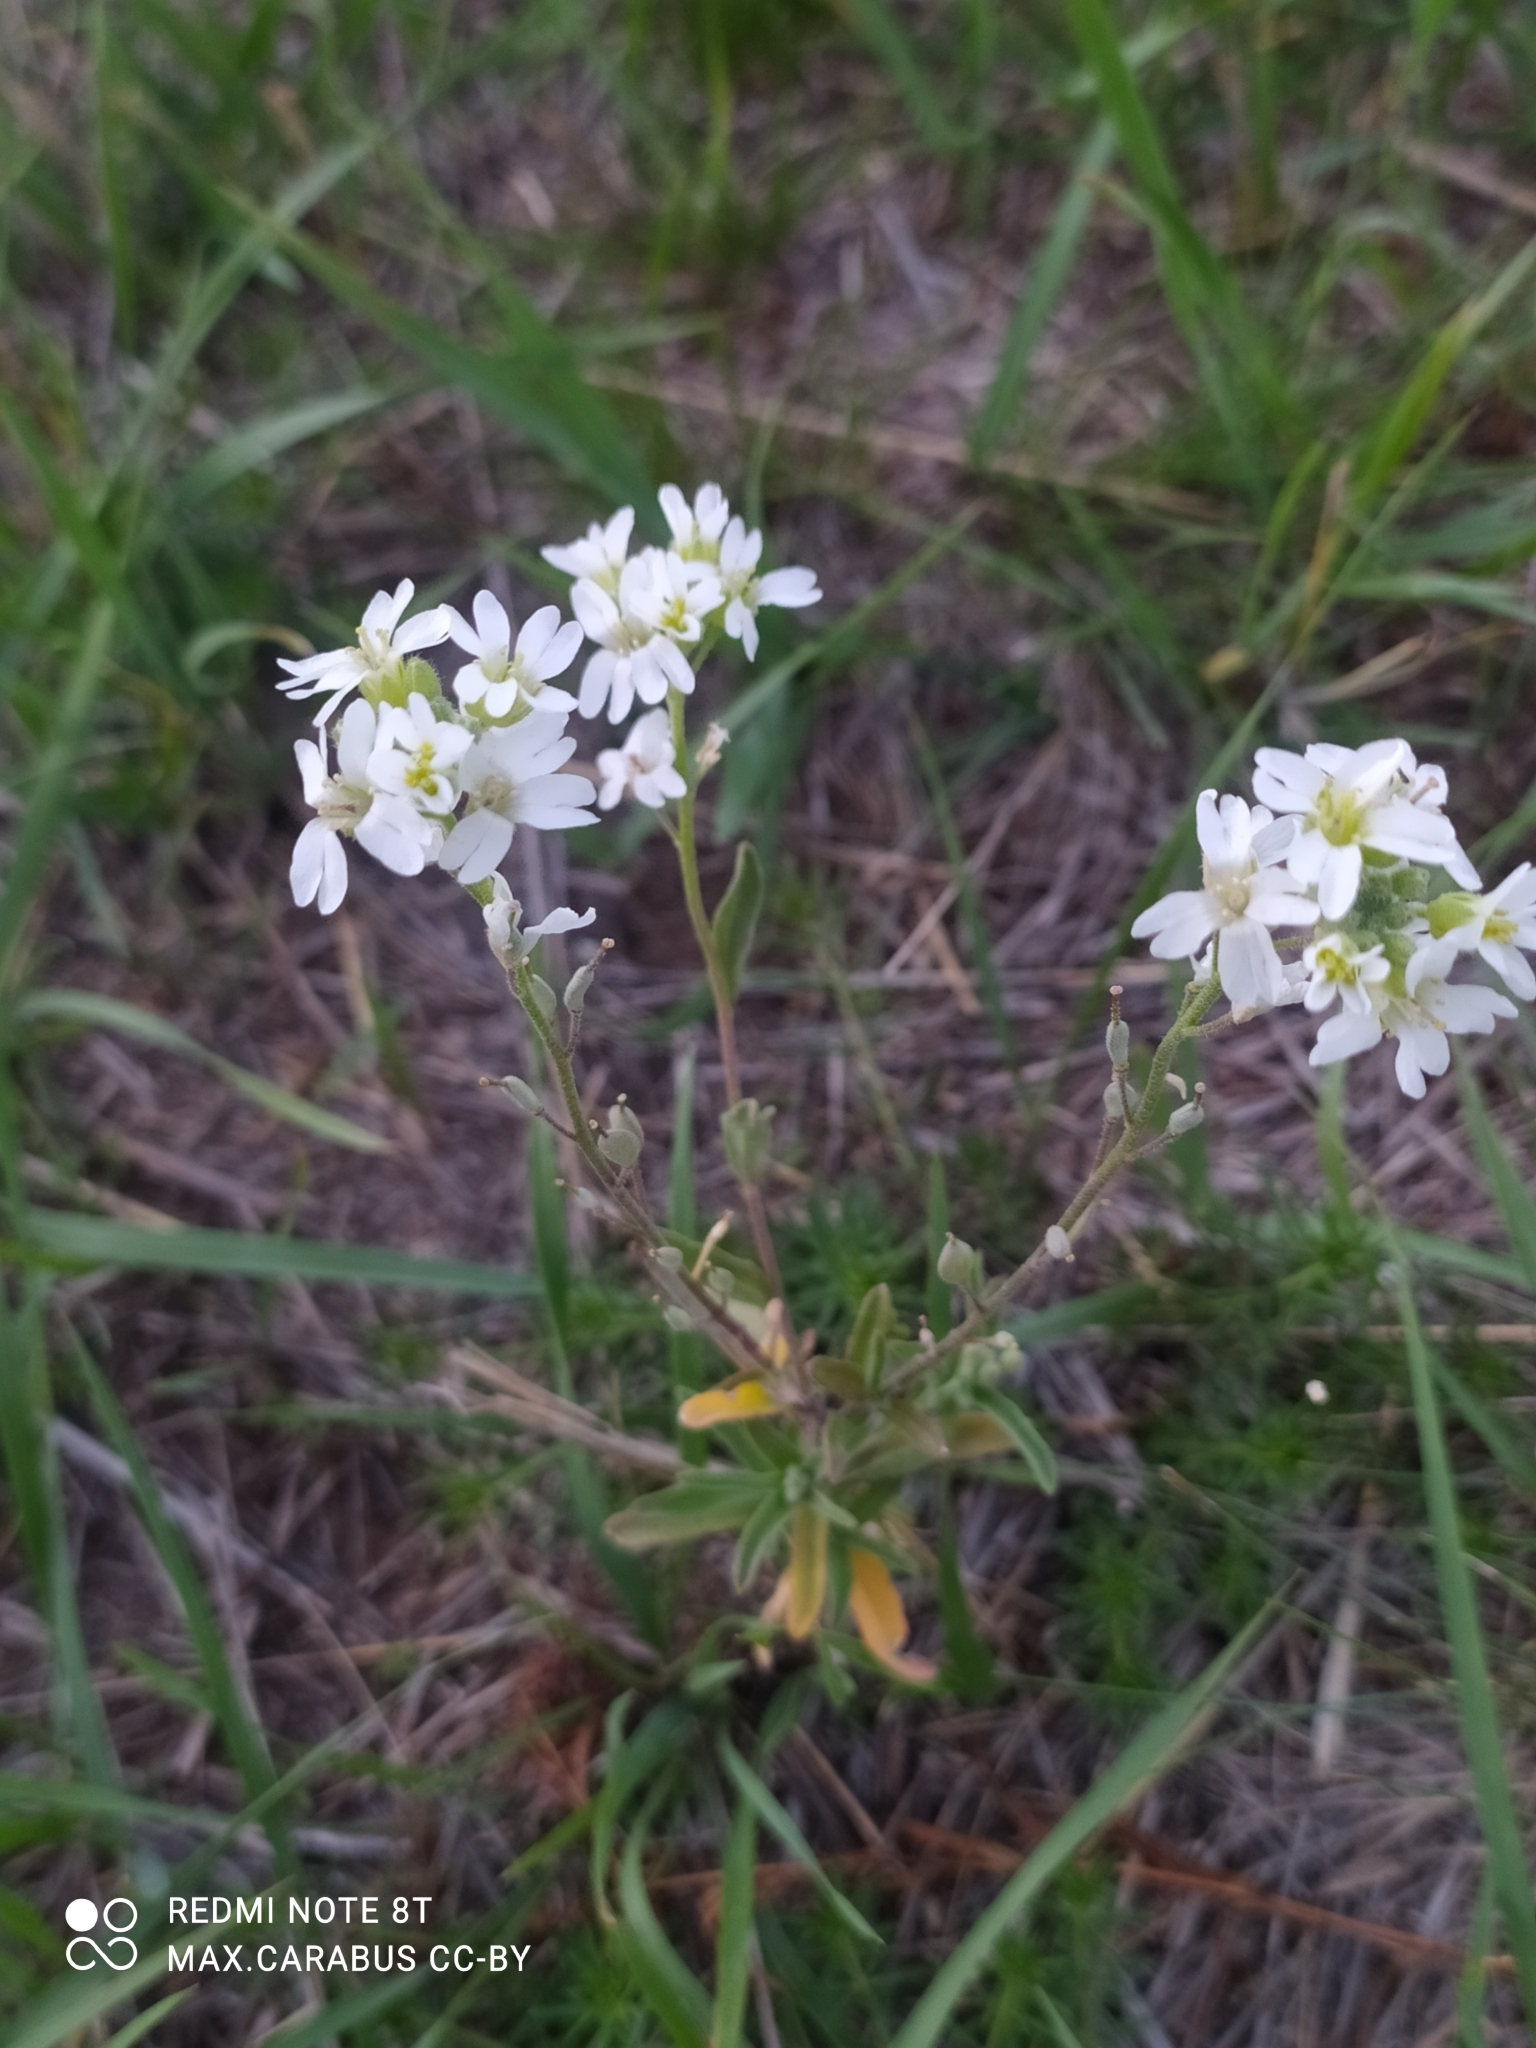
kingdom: Plantae
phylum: Tracheophyta
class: Magnoliopsida
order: Brassicales
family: Brassicaceae
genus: Berteroa
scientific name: Berteroa incana
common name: Hoary alison
